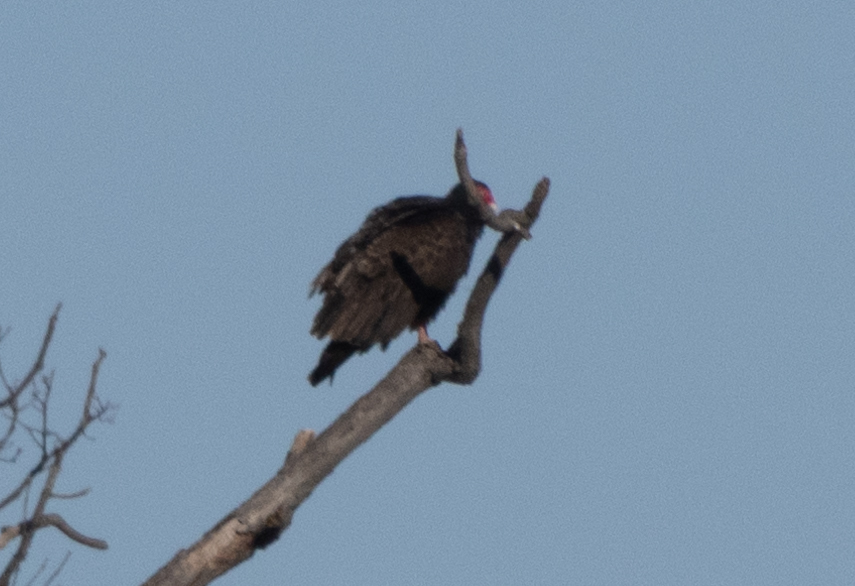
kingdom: Animalia
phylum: Chordata
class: Aves
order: Accipitriformes
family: Cathartidae
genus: Cathartes
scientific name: Cathartes aura
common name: Turkey vulture
